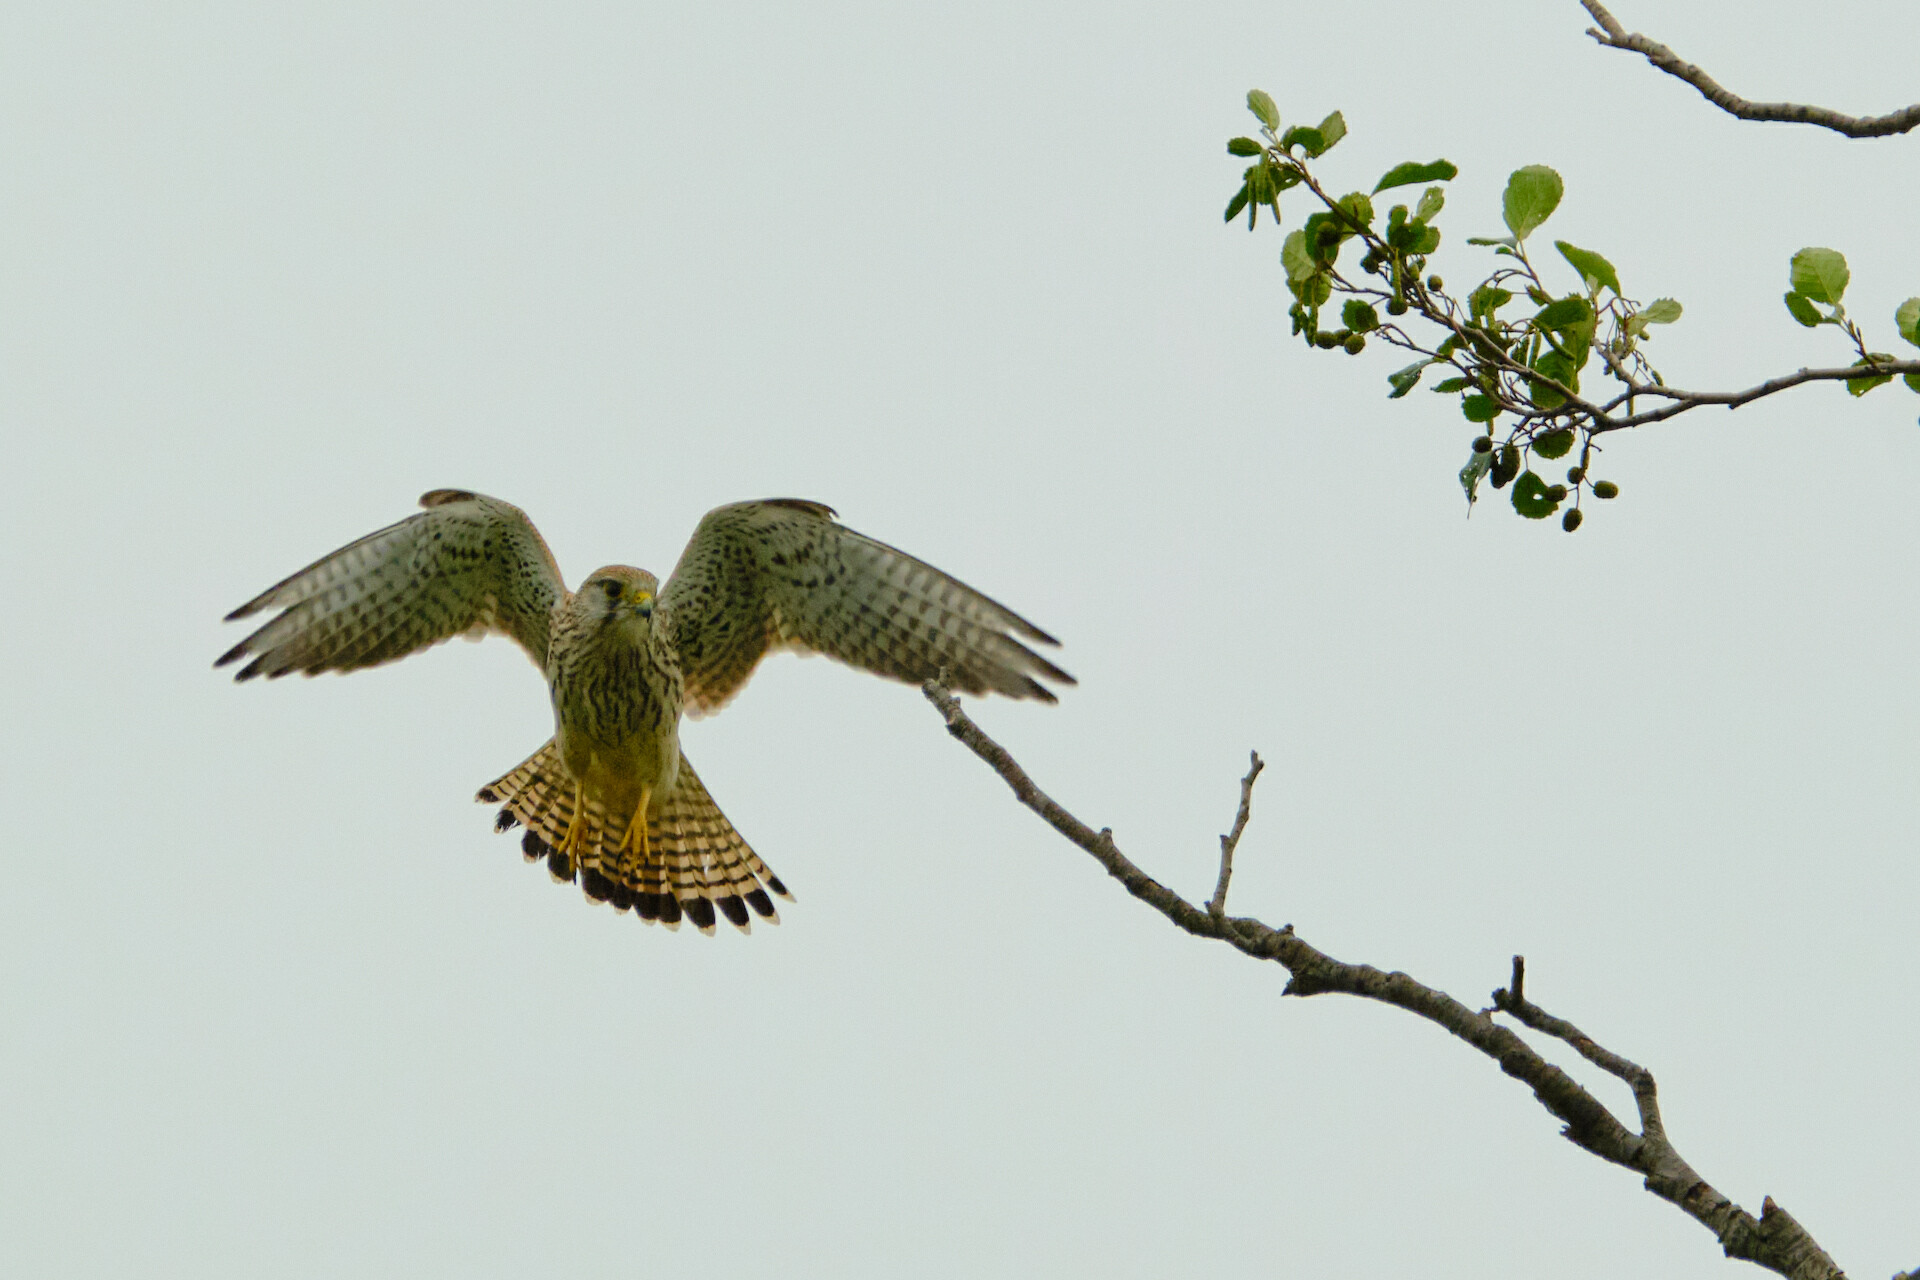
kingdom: Animalia
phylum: Chordata
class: Aves
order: Falconiformes
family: Falconidae
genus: Falco
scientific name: Falco tinnunculus
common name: Common kestrel
